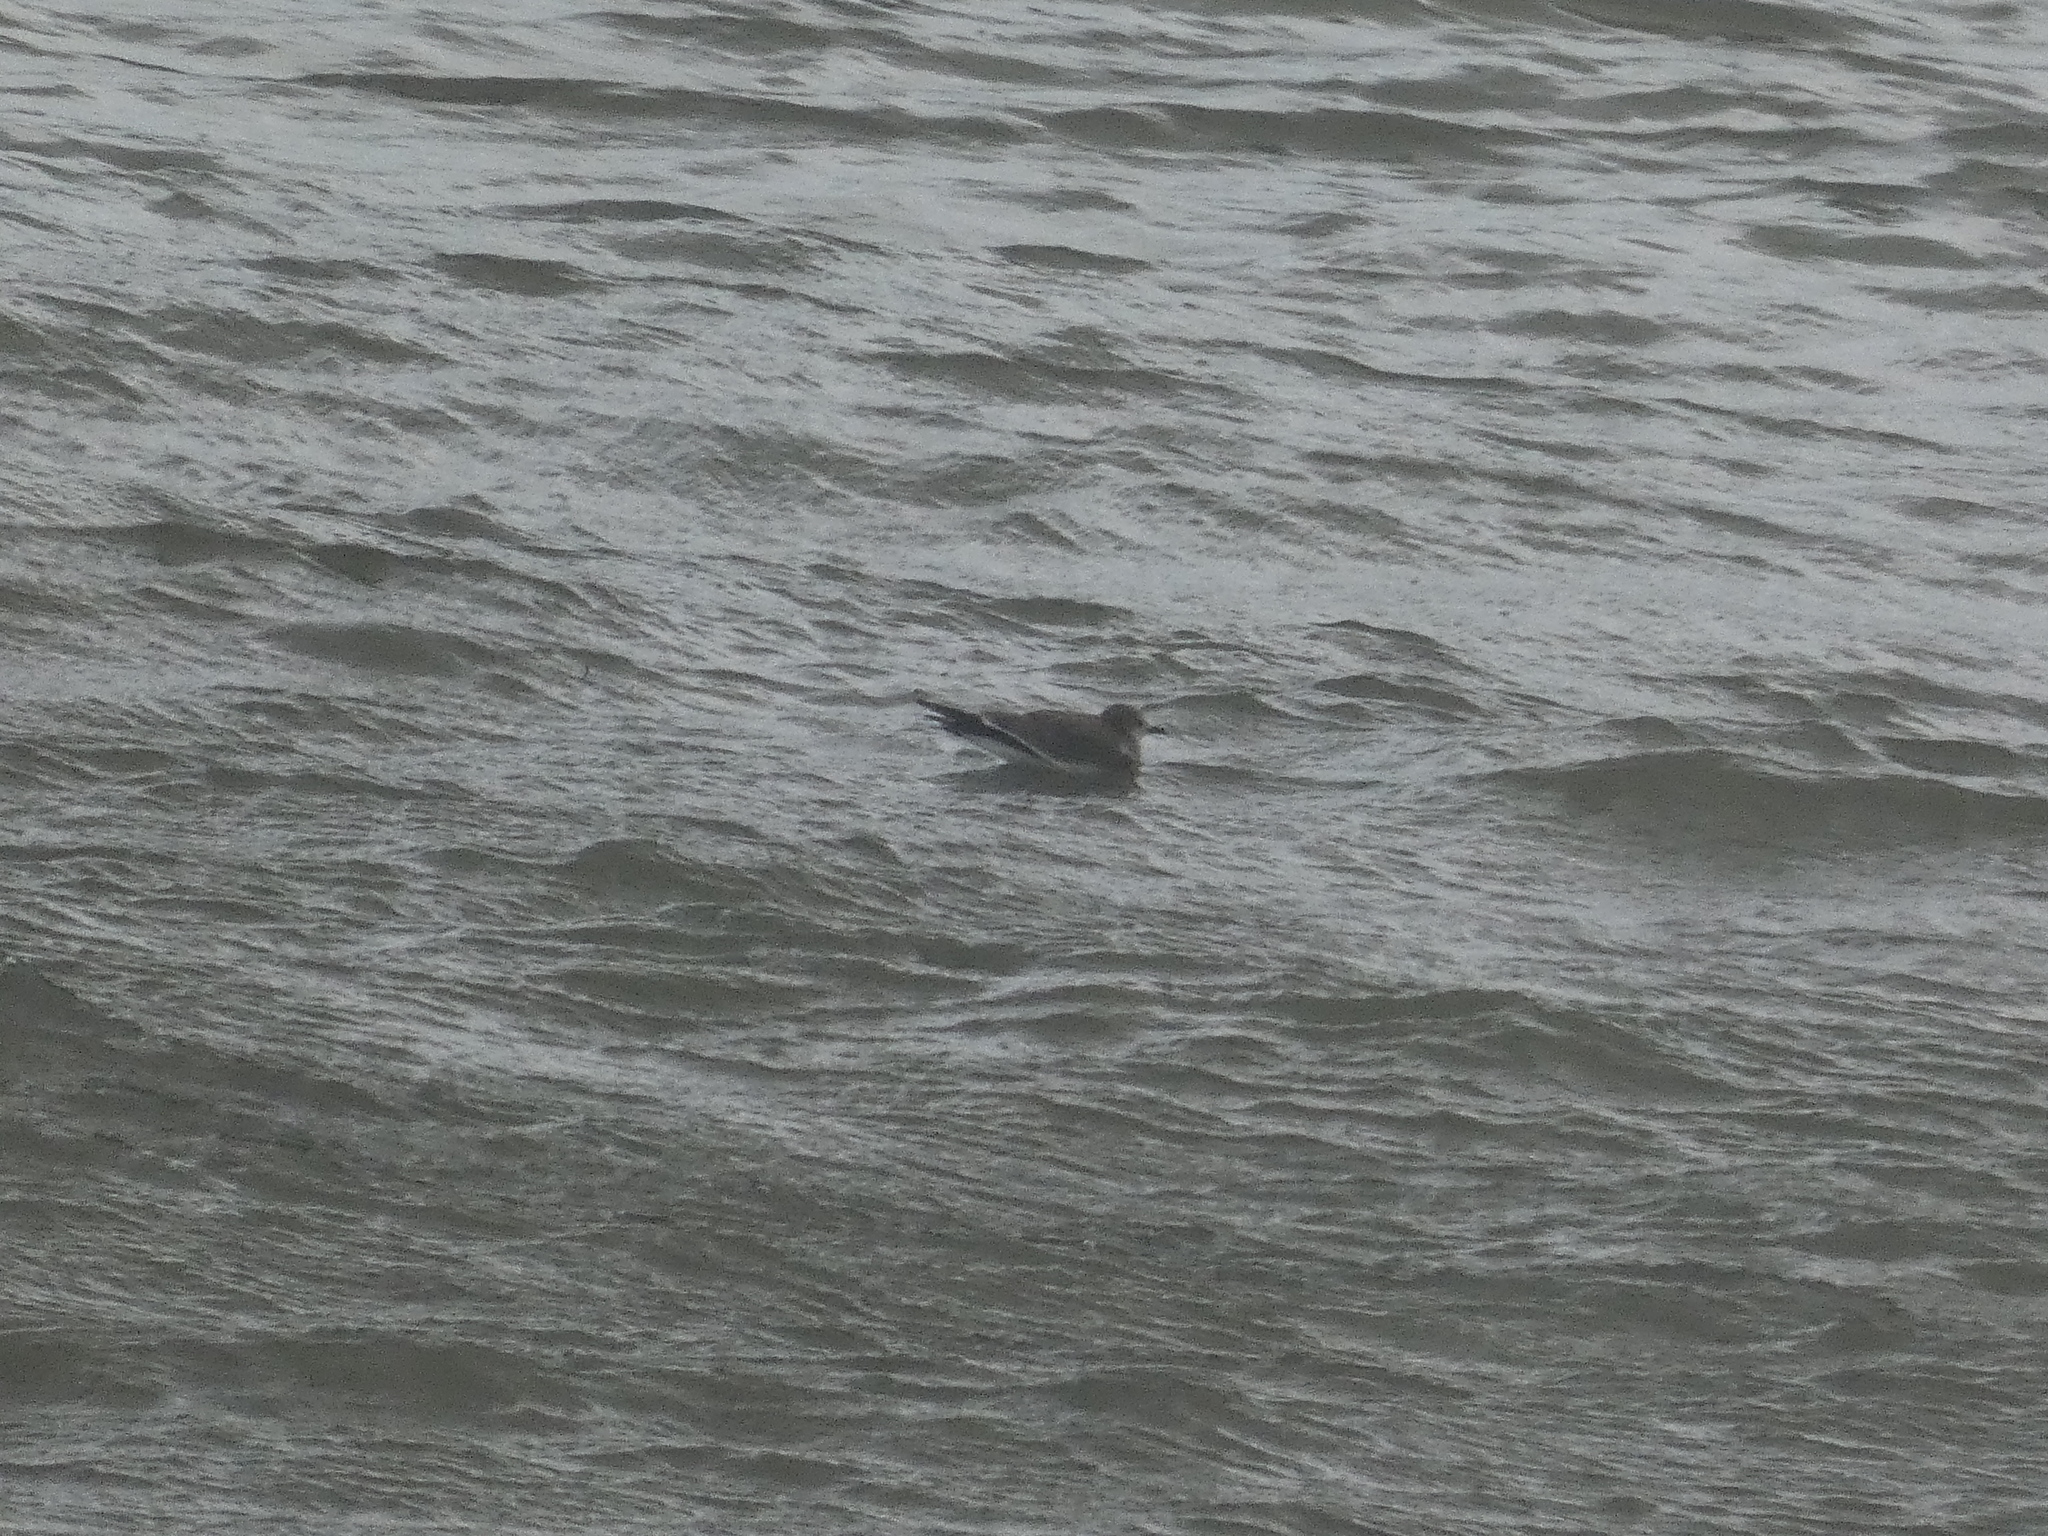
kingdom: Animalia
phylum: Chordata
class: Aves
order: Charadriiformes
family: Laridae
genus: Xema
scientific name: Xema sabini
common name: Sabine's gull
